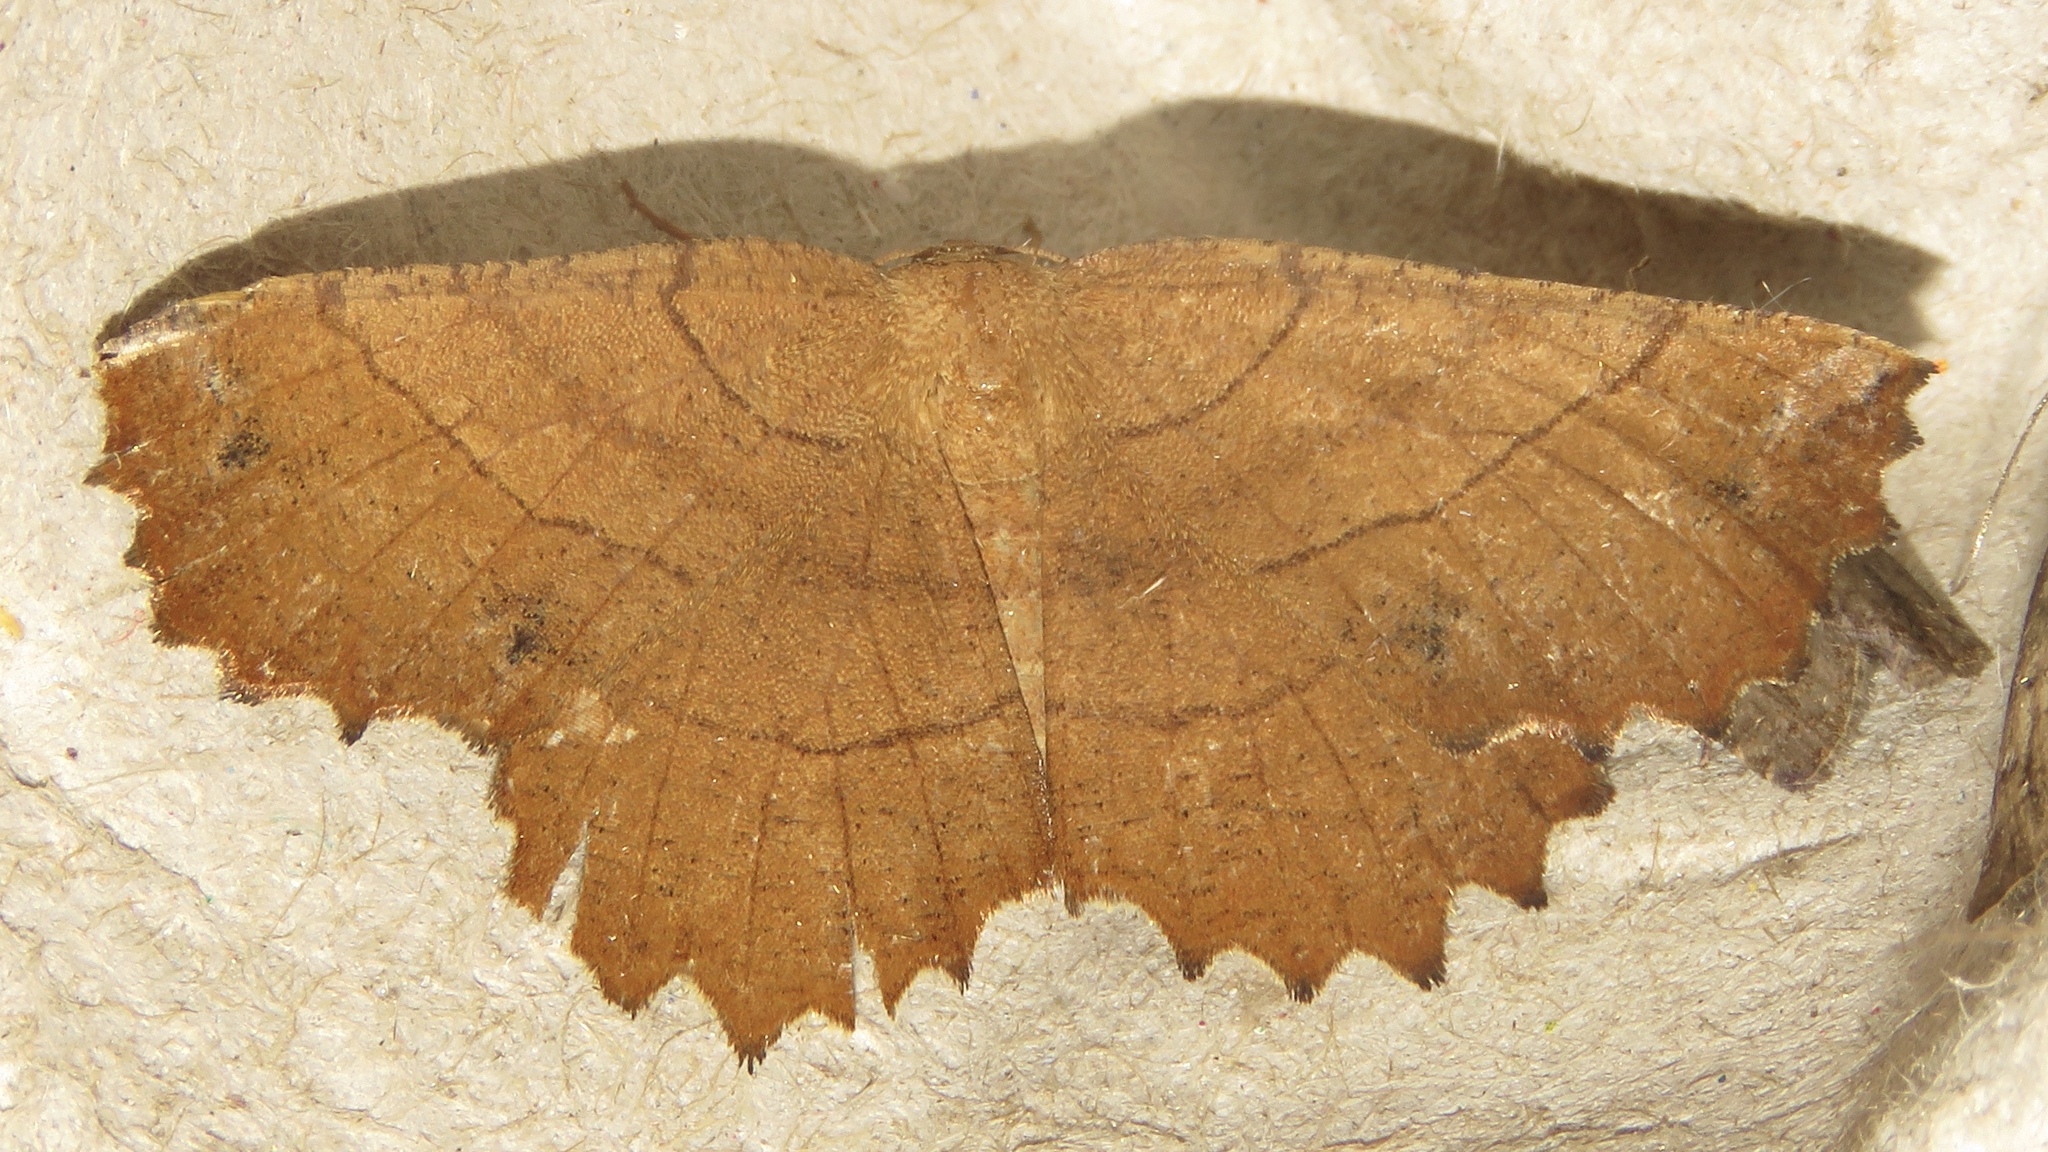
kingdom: Animalia
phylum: Arthropoda
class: Insecta
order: Lepidoptera
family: Geometridae
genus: Euchlaena
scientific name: Euchlaena johnsonaria
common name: Johnson's euchlaena
